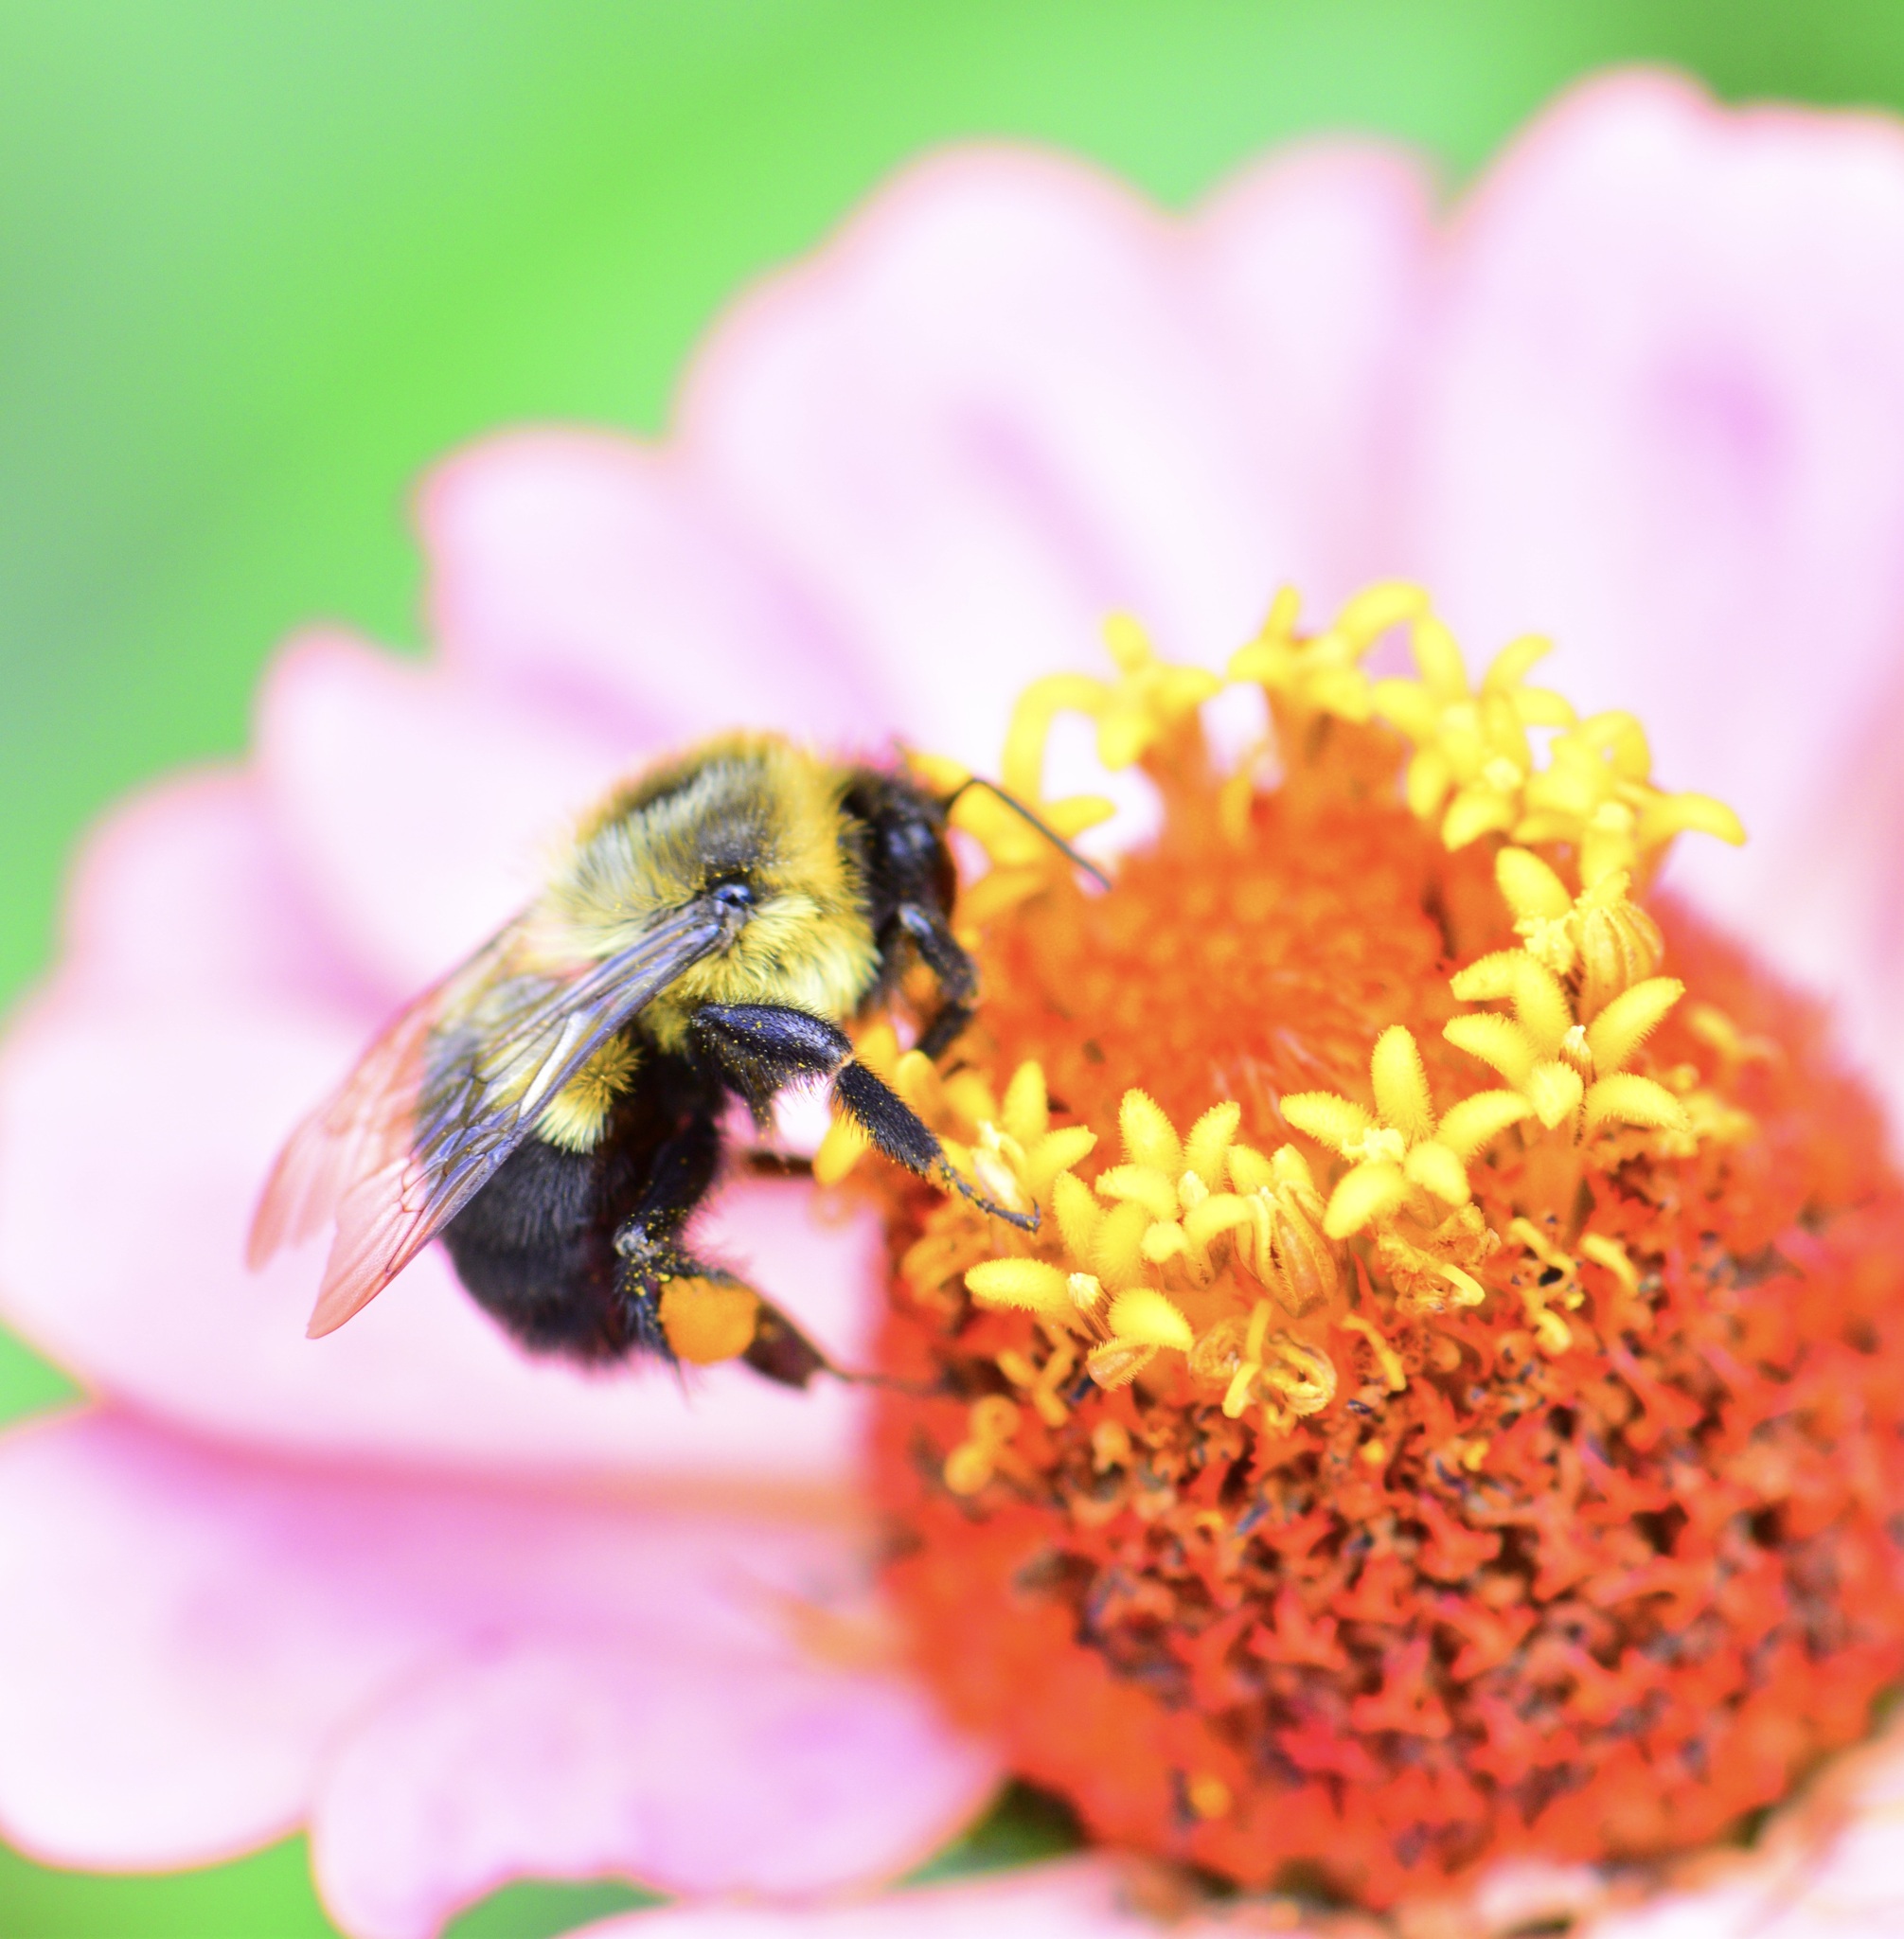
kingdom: Animalia
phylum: Arthropoda
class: Insecta
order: Hymenoptera
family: Apidae
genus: Bombus
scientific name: Bombus impatiens
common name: Common eastern bumble bee
